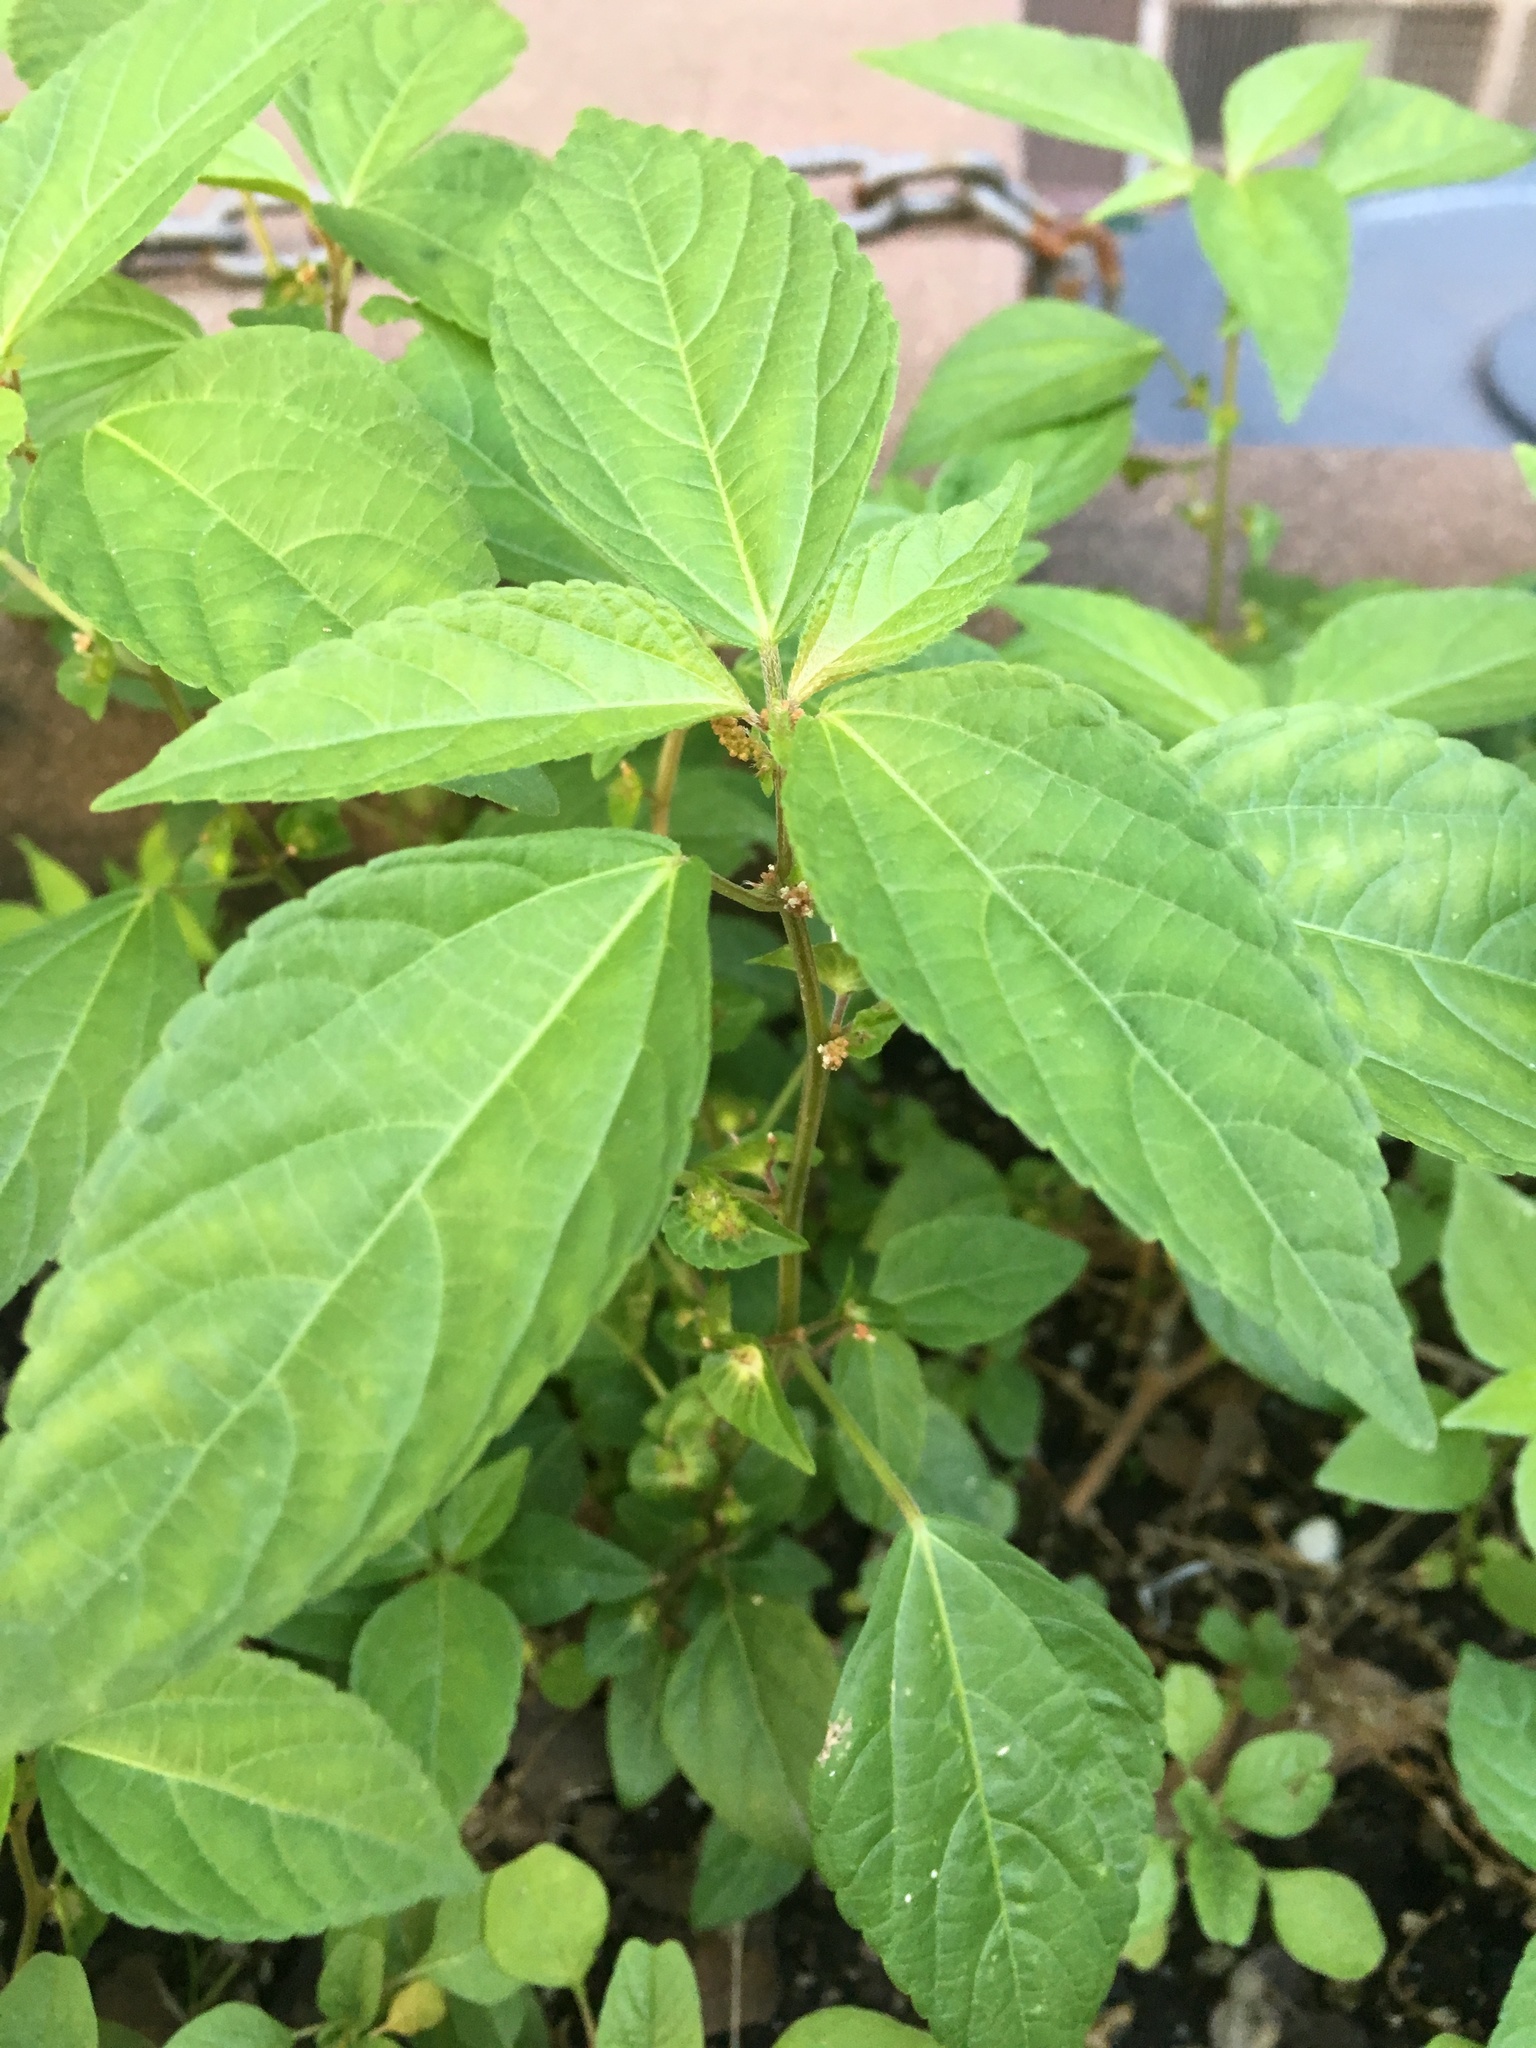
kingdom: Plantae
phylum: Tracheophyta
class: Magnoliopsida
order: Malpighiales
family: Euphorbiaceae
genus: Acalypha
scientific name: Acalypha australis
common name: Asian copperleaf
